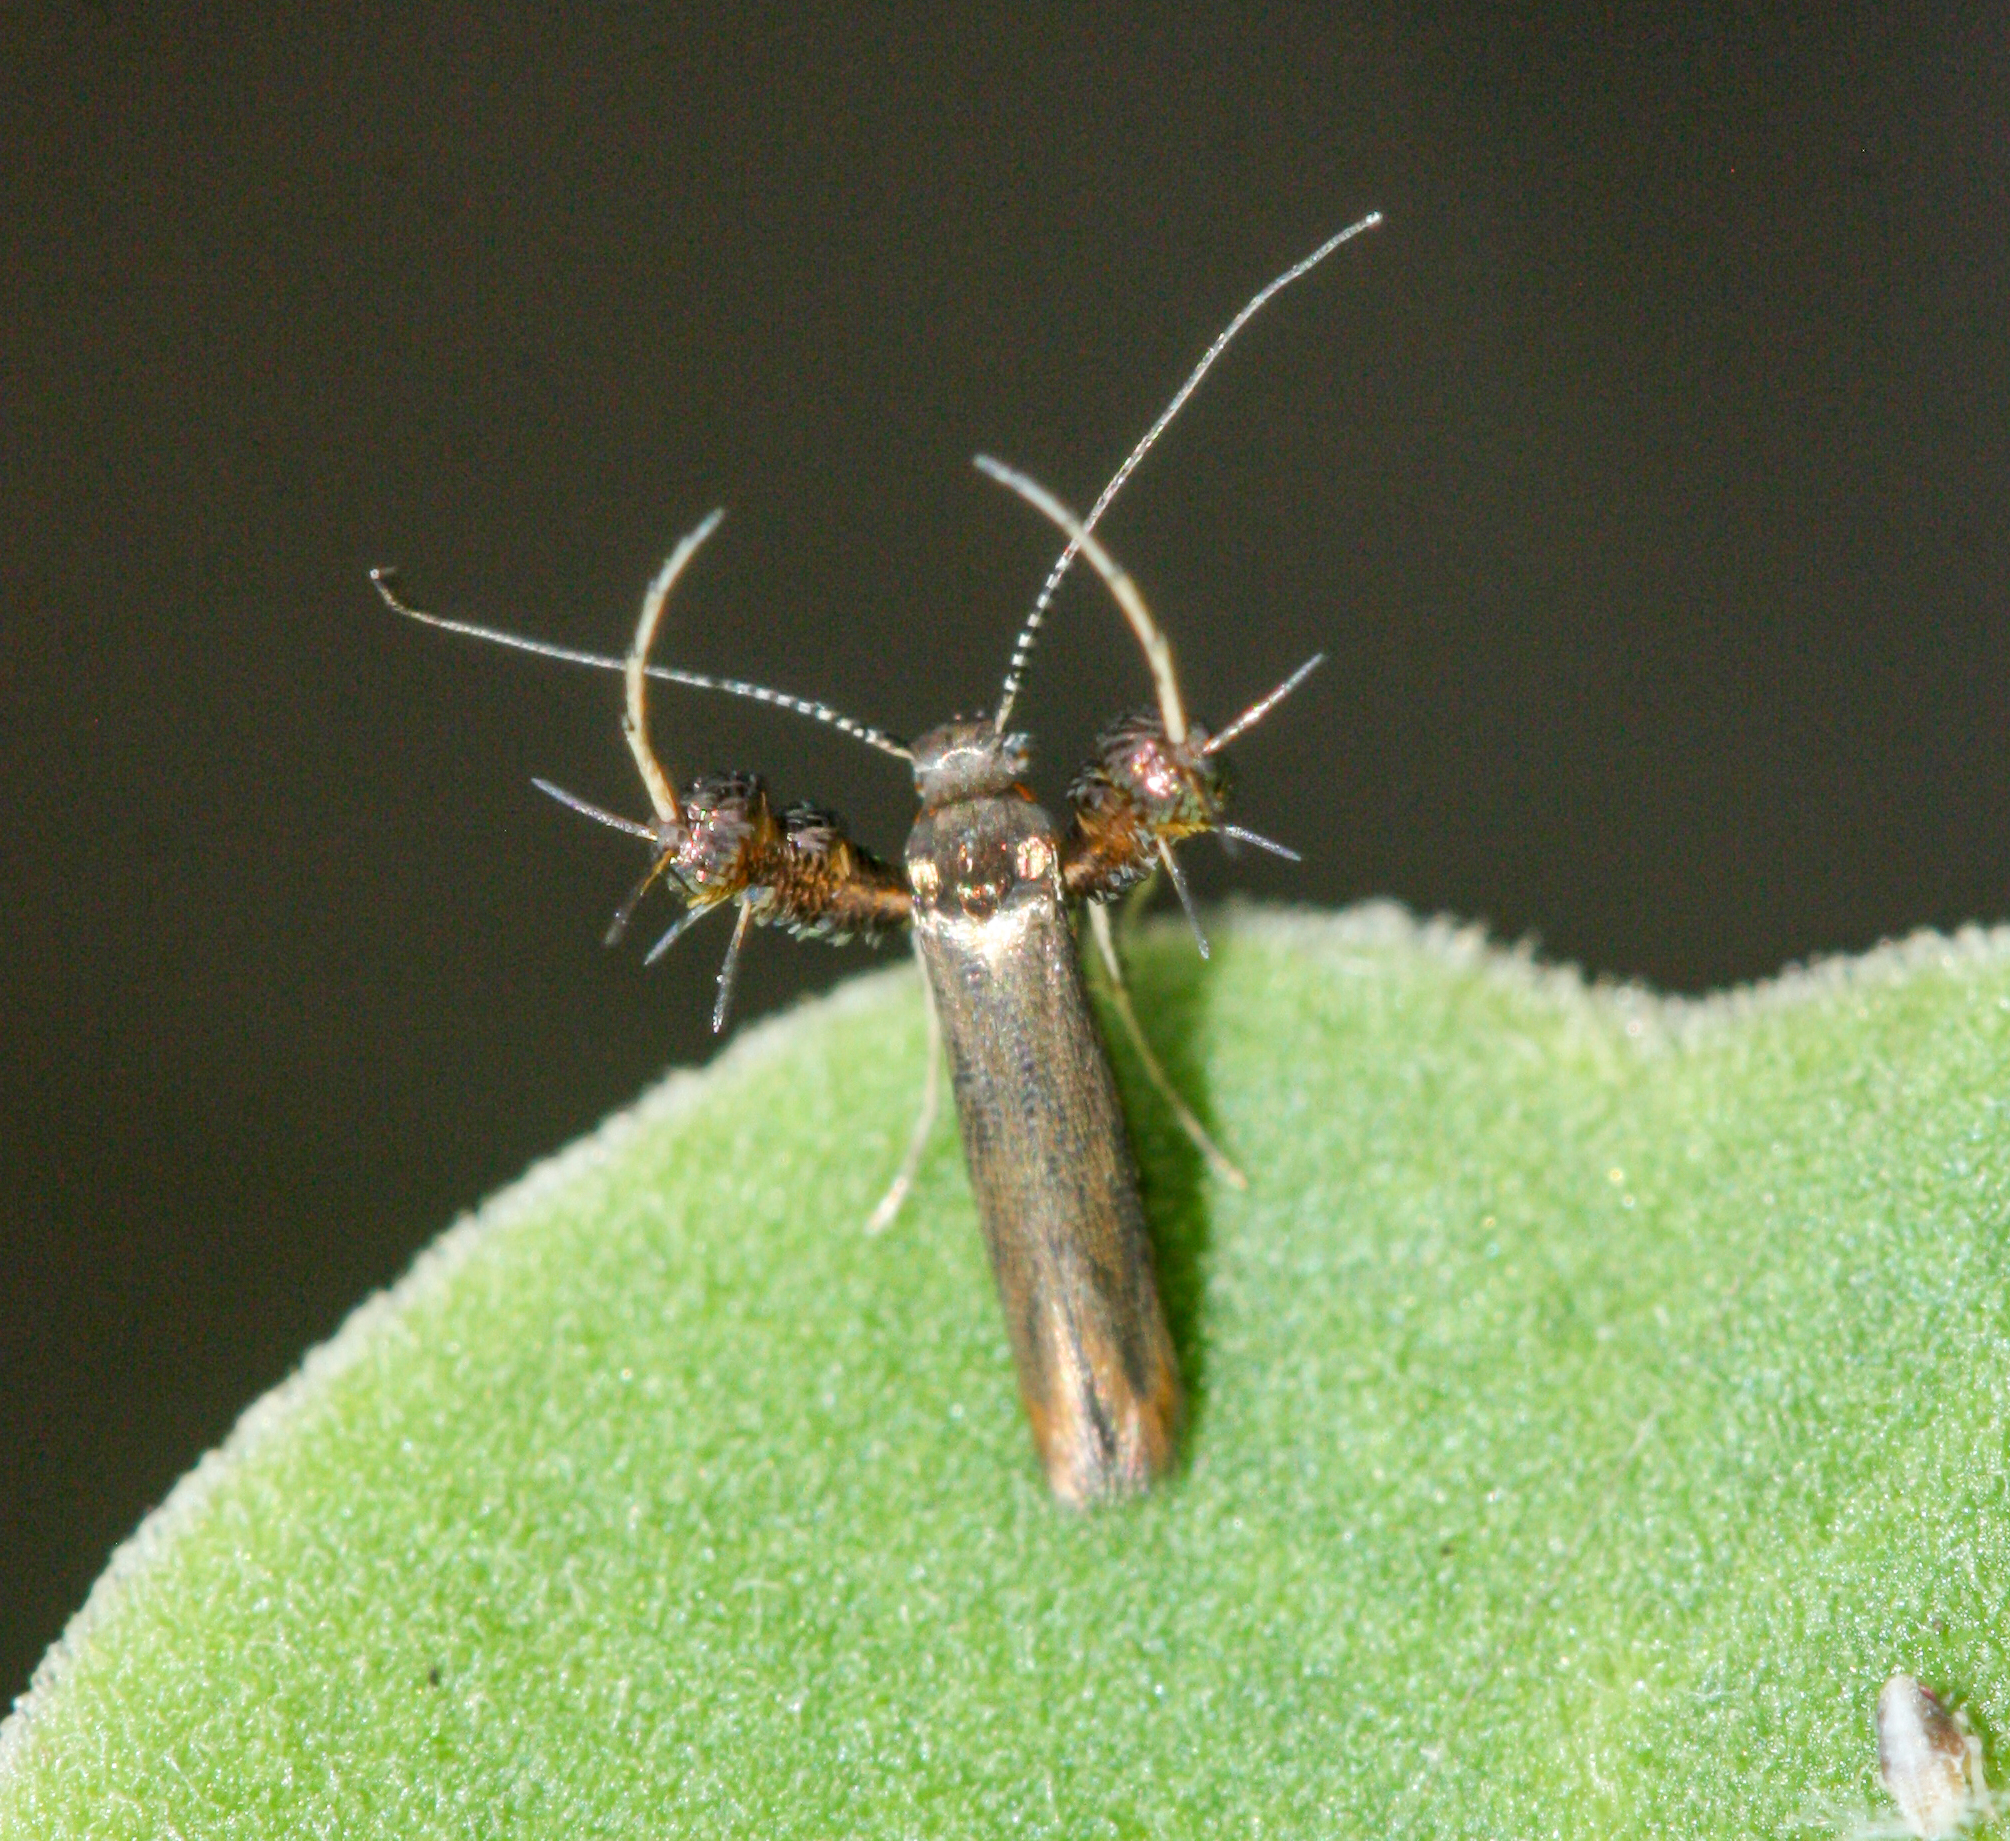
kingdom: Animalia
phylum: Arthropoda
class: Insecta
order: Lepidoptera
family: Heliodinidae
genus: Heliodines
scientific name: Heliodines
